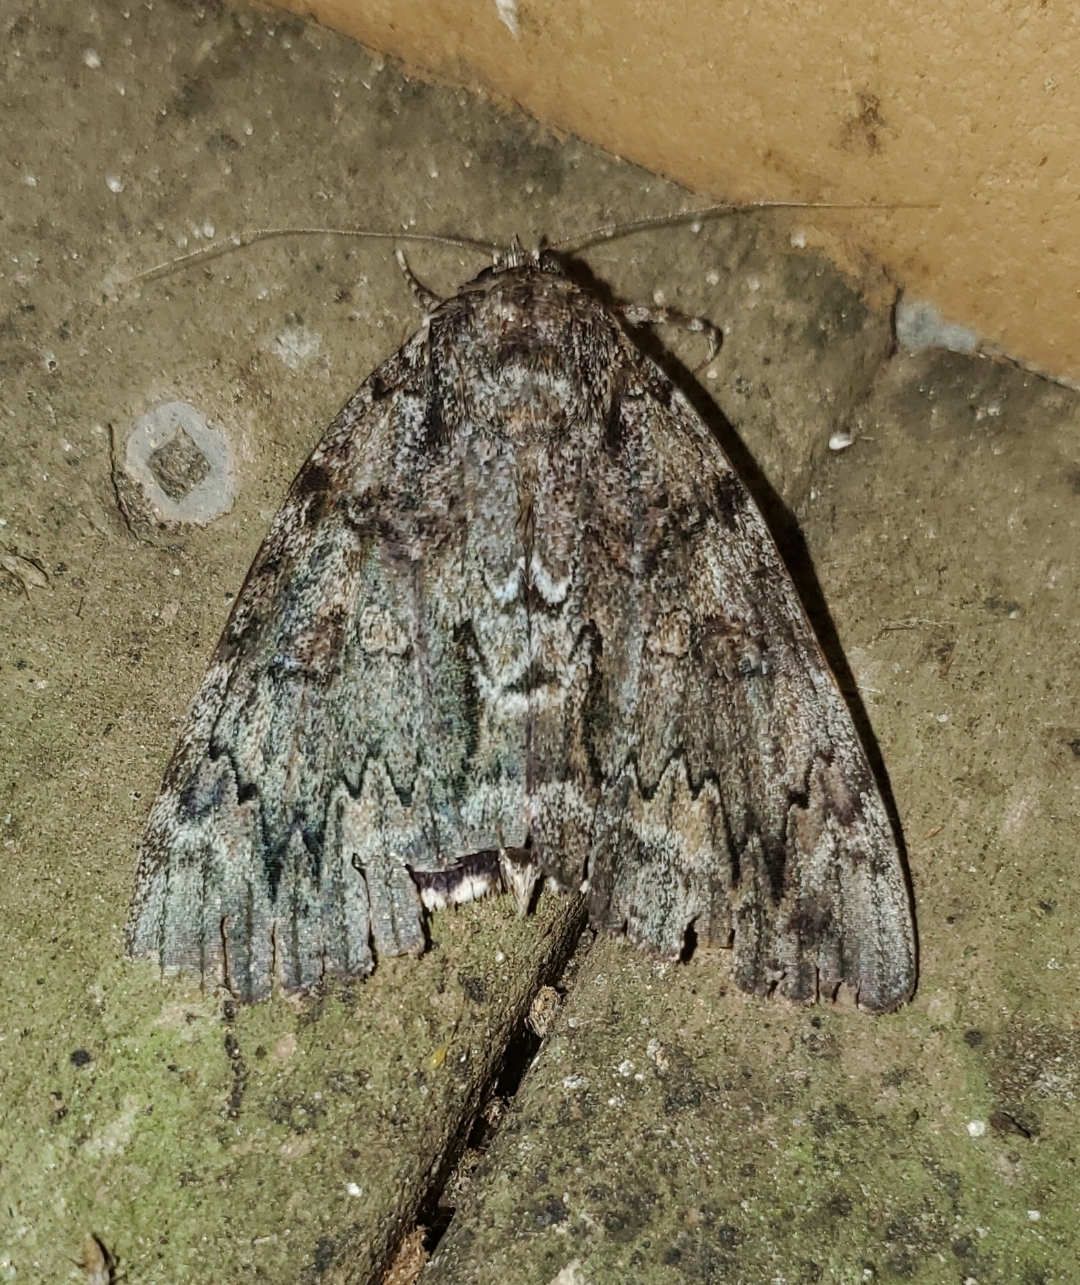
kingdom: Animalia
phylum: Arthropoda
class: Insecta
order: Lepidoptera
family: Erebidae
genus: Catocala
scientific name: Catocala lacrymosa
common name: Tearful underwing
